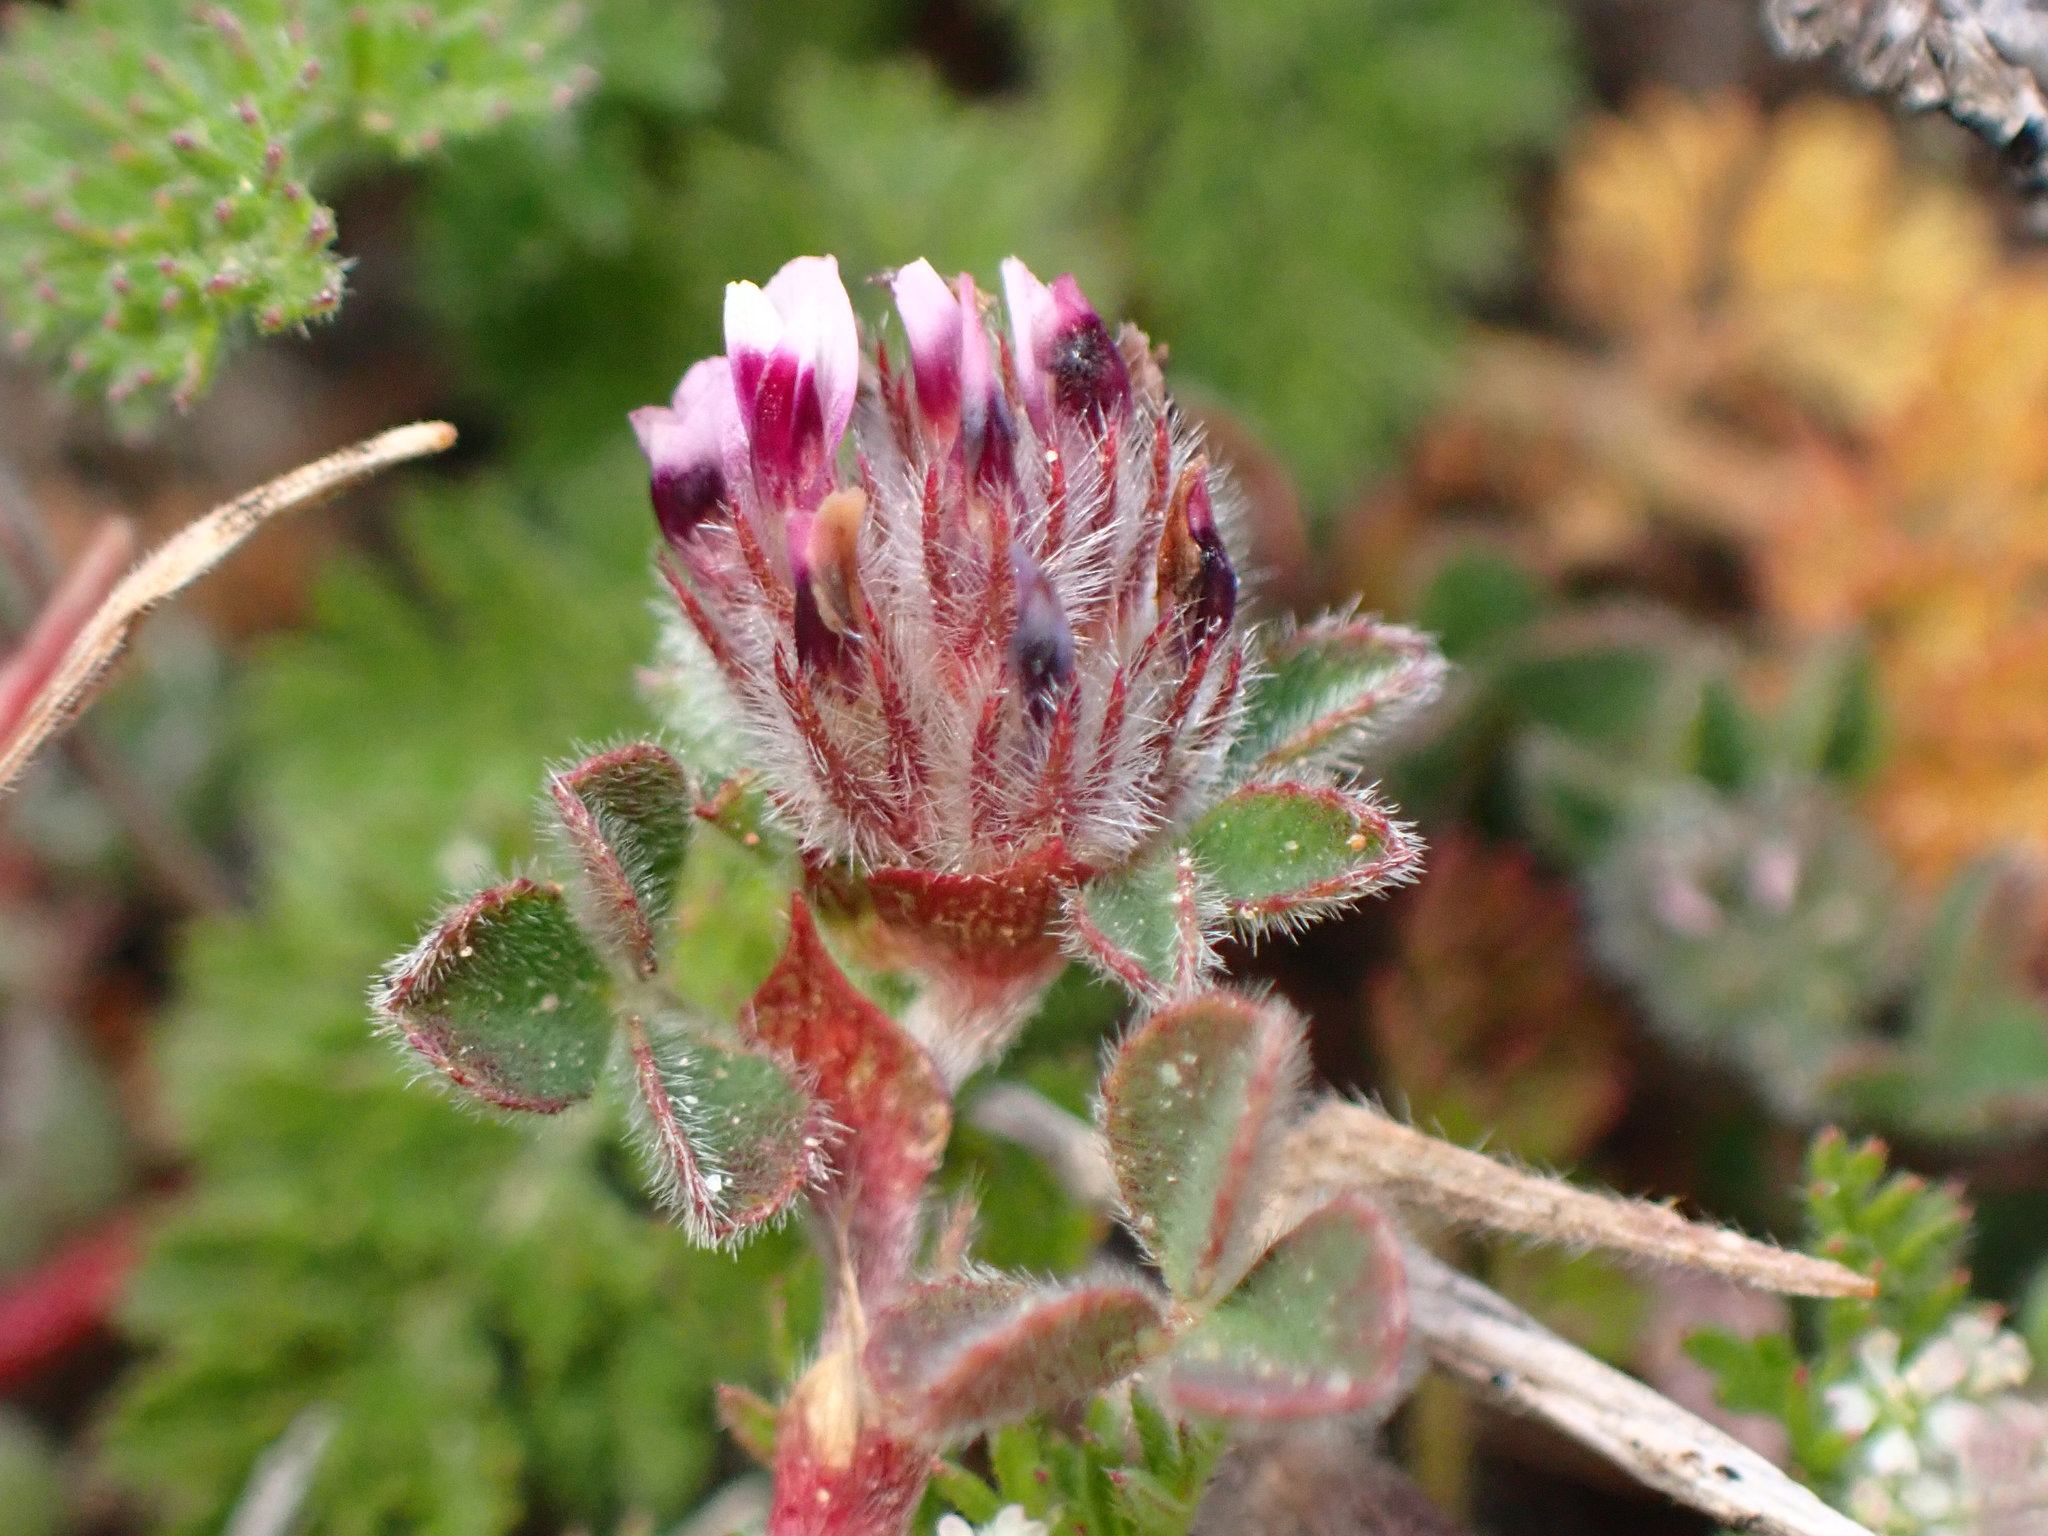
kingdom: Plantae
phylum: Tracheophyta
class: Magnoliopsida
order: Fabales
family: Fabaceae
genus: Trifolium
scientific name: Trifolium macraei
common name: Macrae's clover
